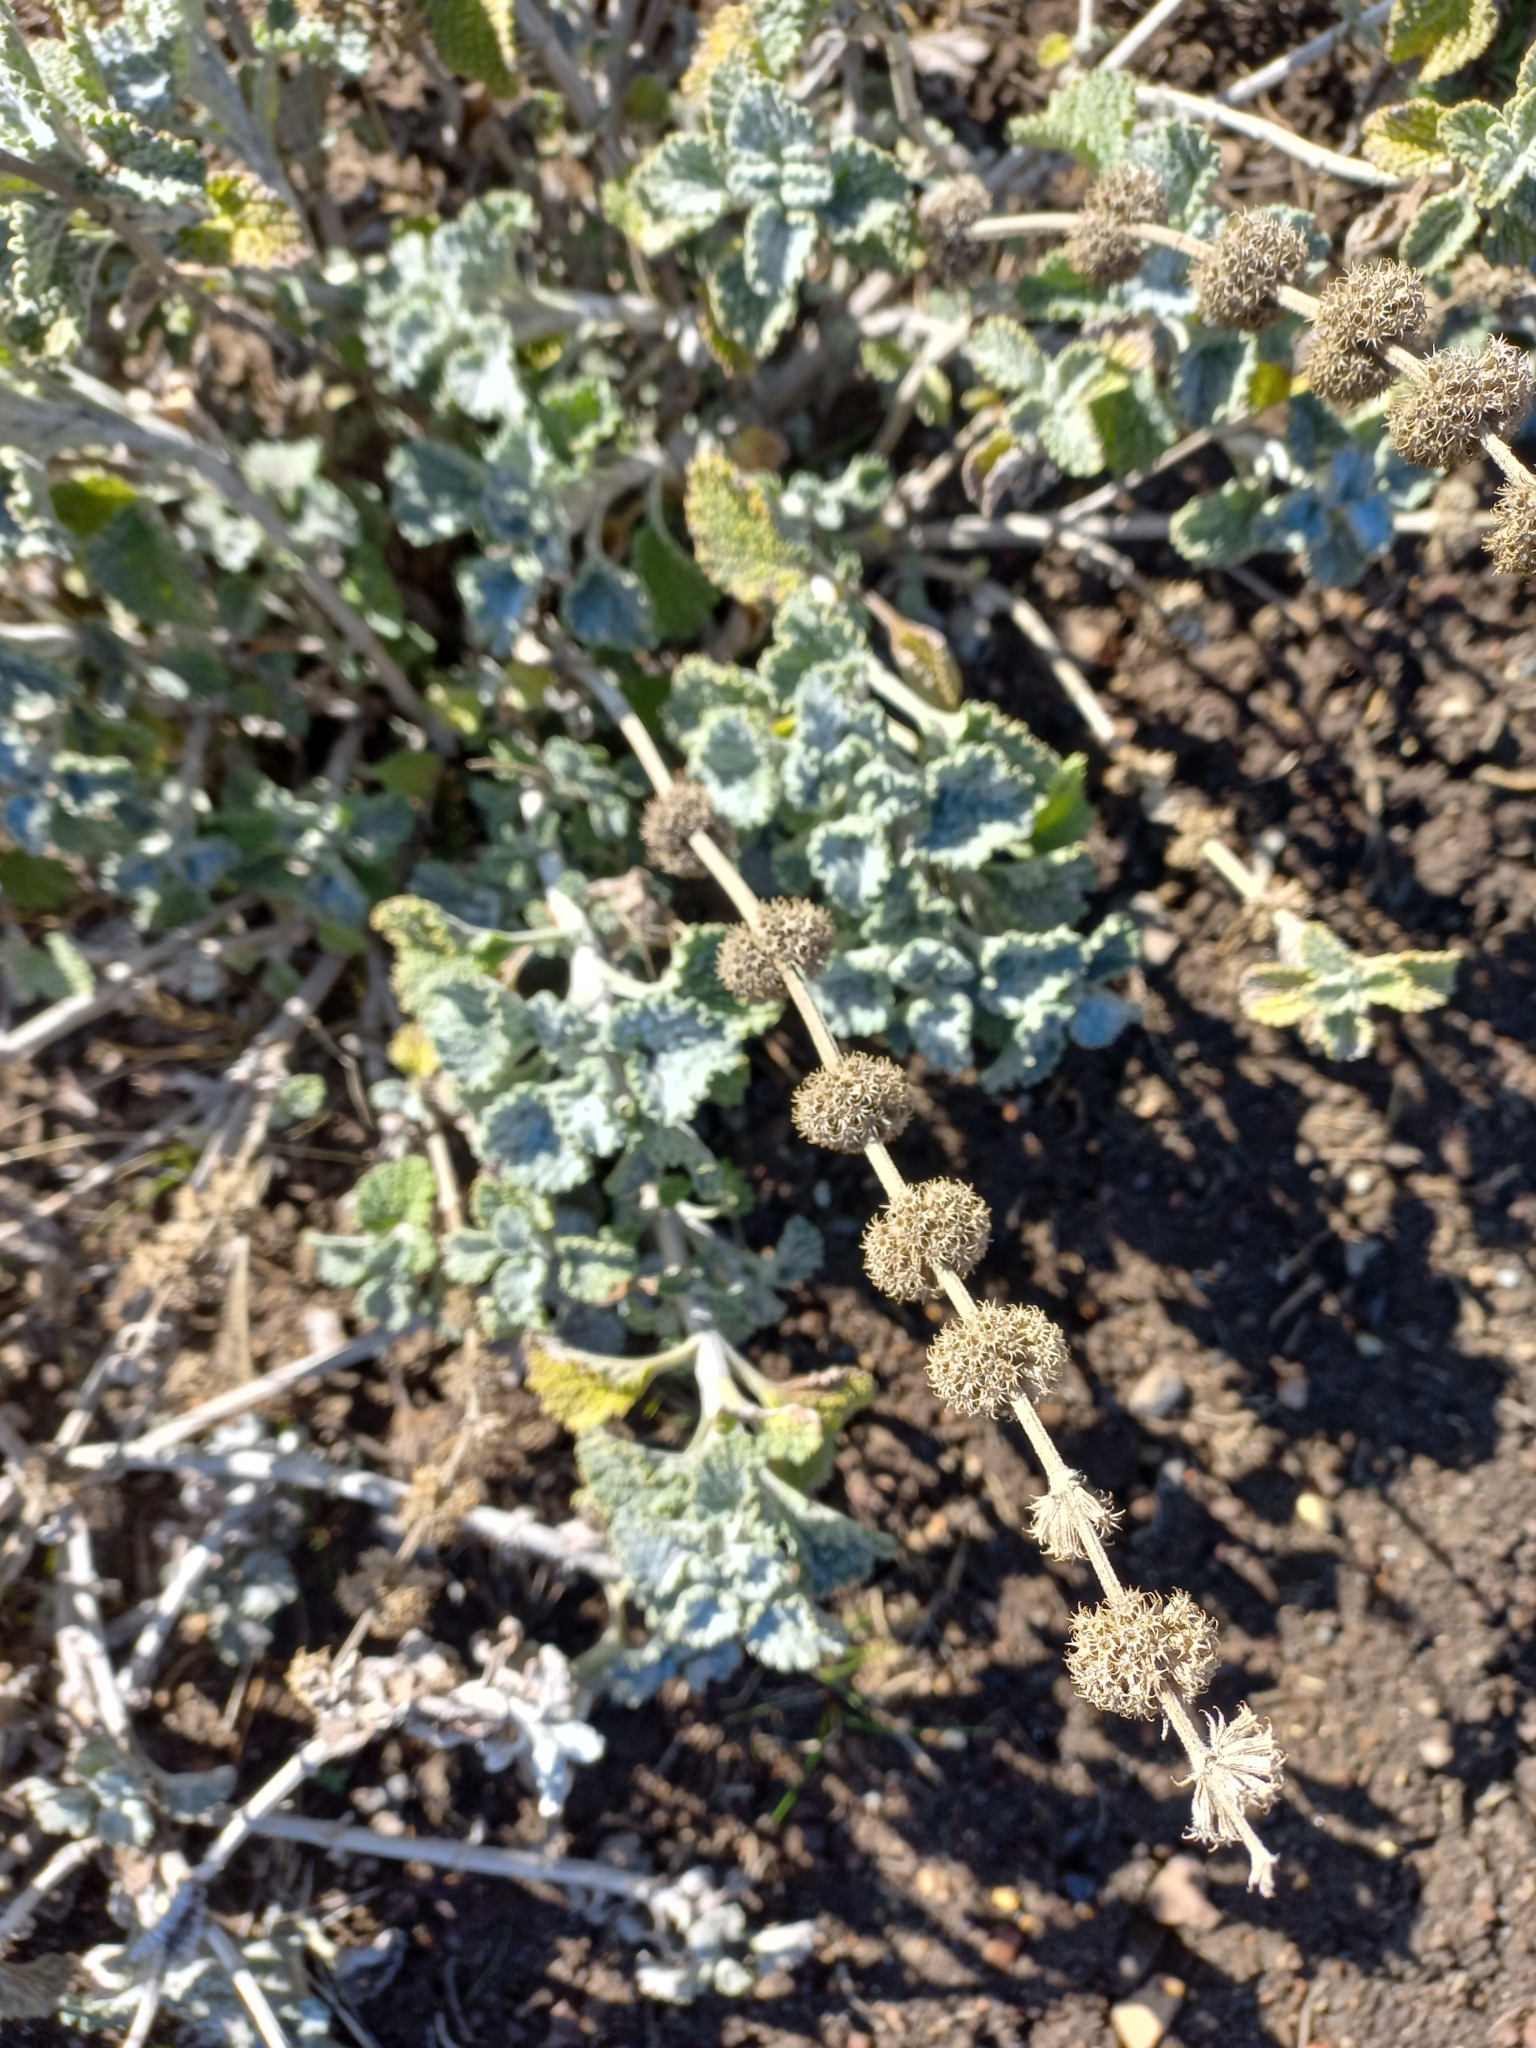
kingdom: Plantae
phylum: Tracheophyta
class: Magnoliopsida
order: Lamiales
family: Lamiaceae
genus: Marrubium
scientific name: Marrubium vulgare
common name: Horehound
